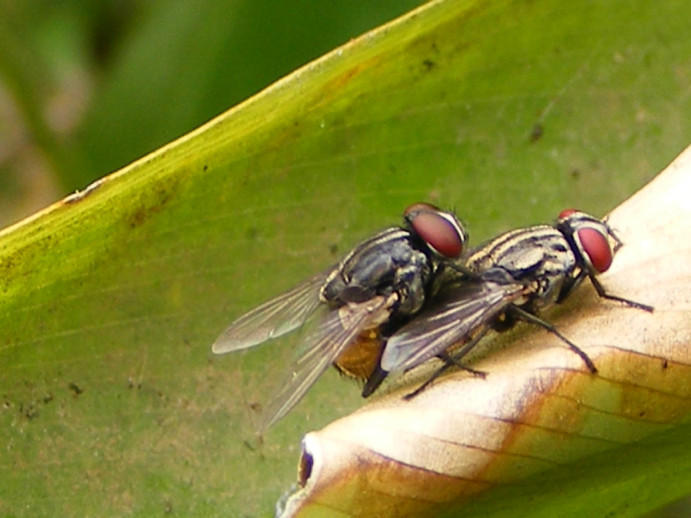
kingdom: Animalia
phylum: Arthropoda
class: Insecta
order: Diptera
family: Muscidae
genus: Musca
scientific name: Musca domestica
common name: House fly
